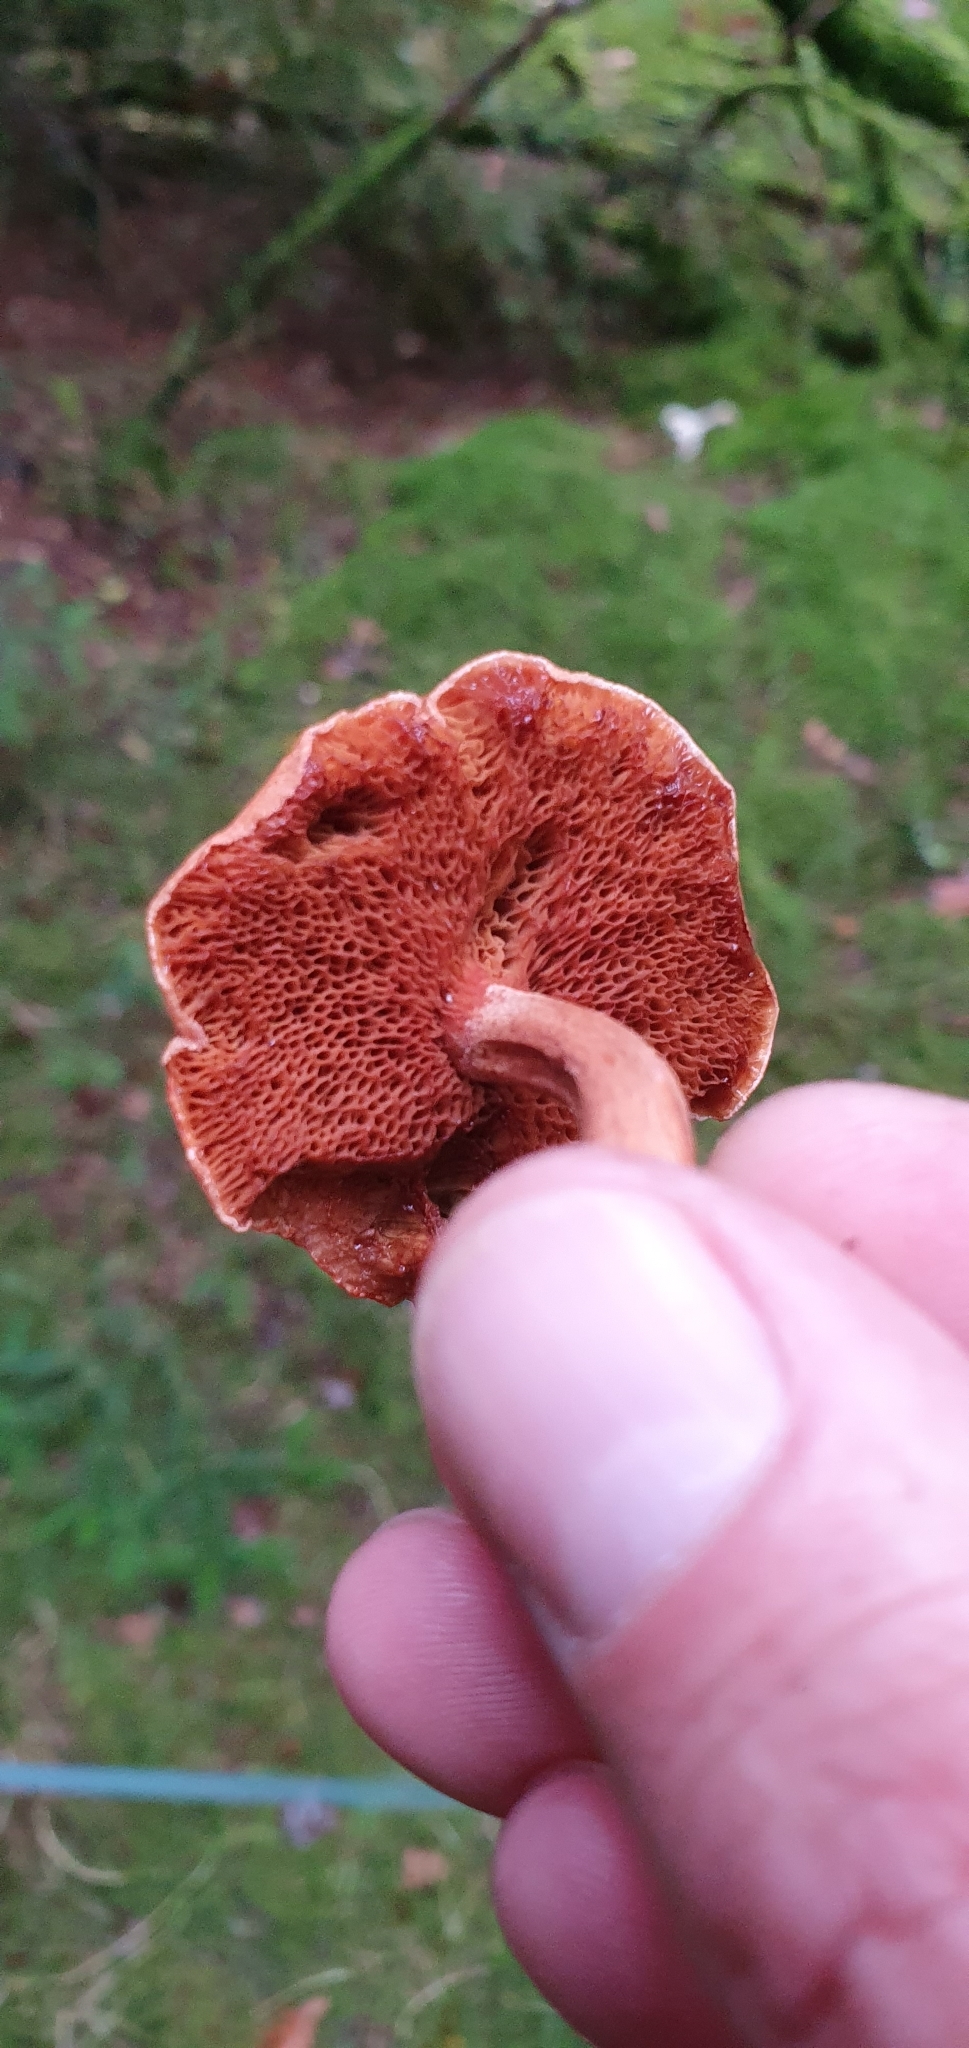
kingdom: Fungi
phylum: Basidiomycota
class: Agaricomycetes
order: Boletales
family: Boletaceae
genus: Chalciporus
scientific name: Chalciporus piperatus
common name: Peppery bolete
